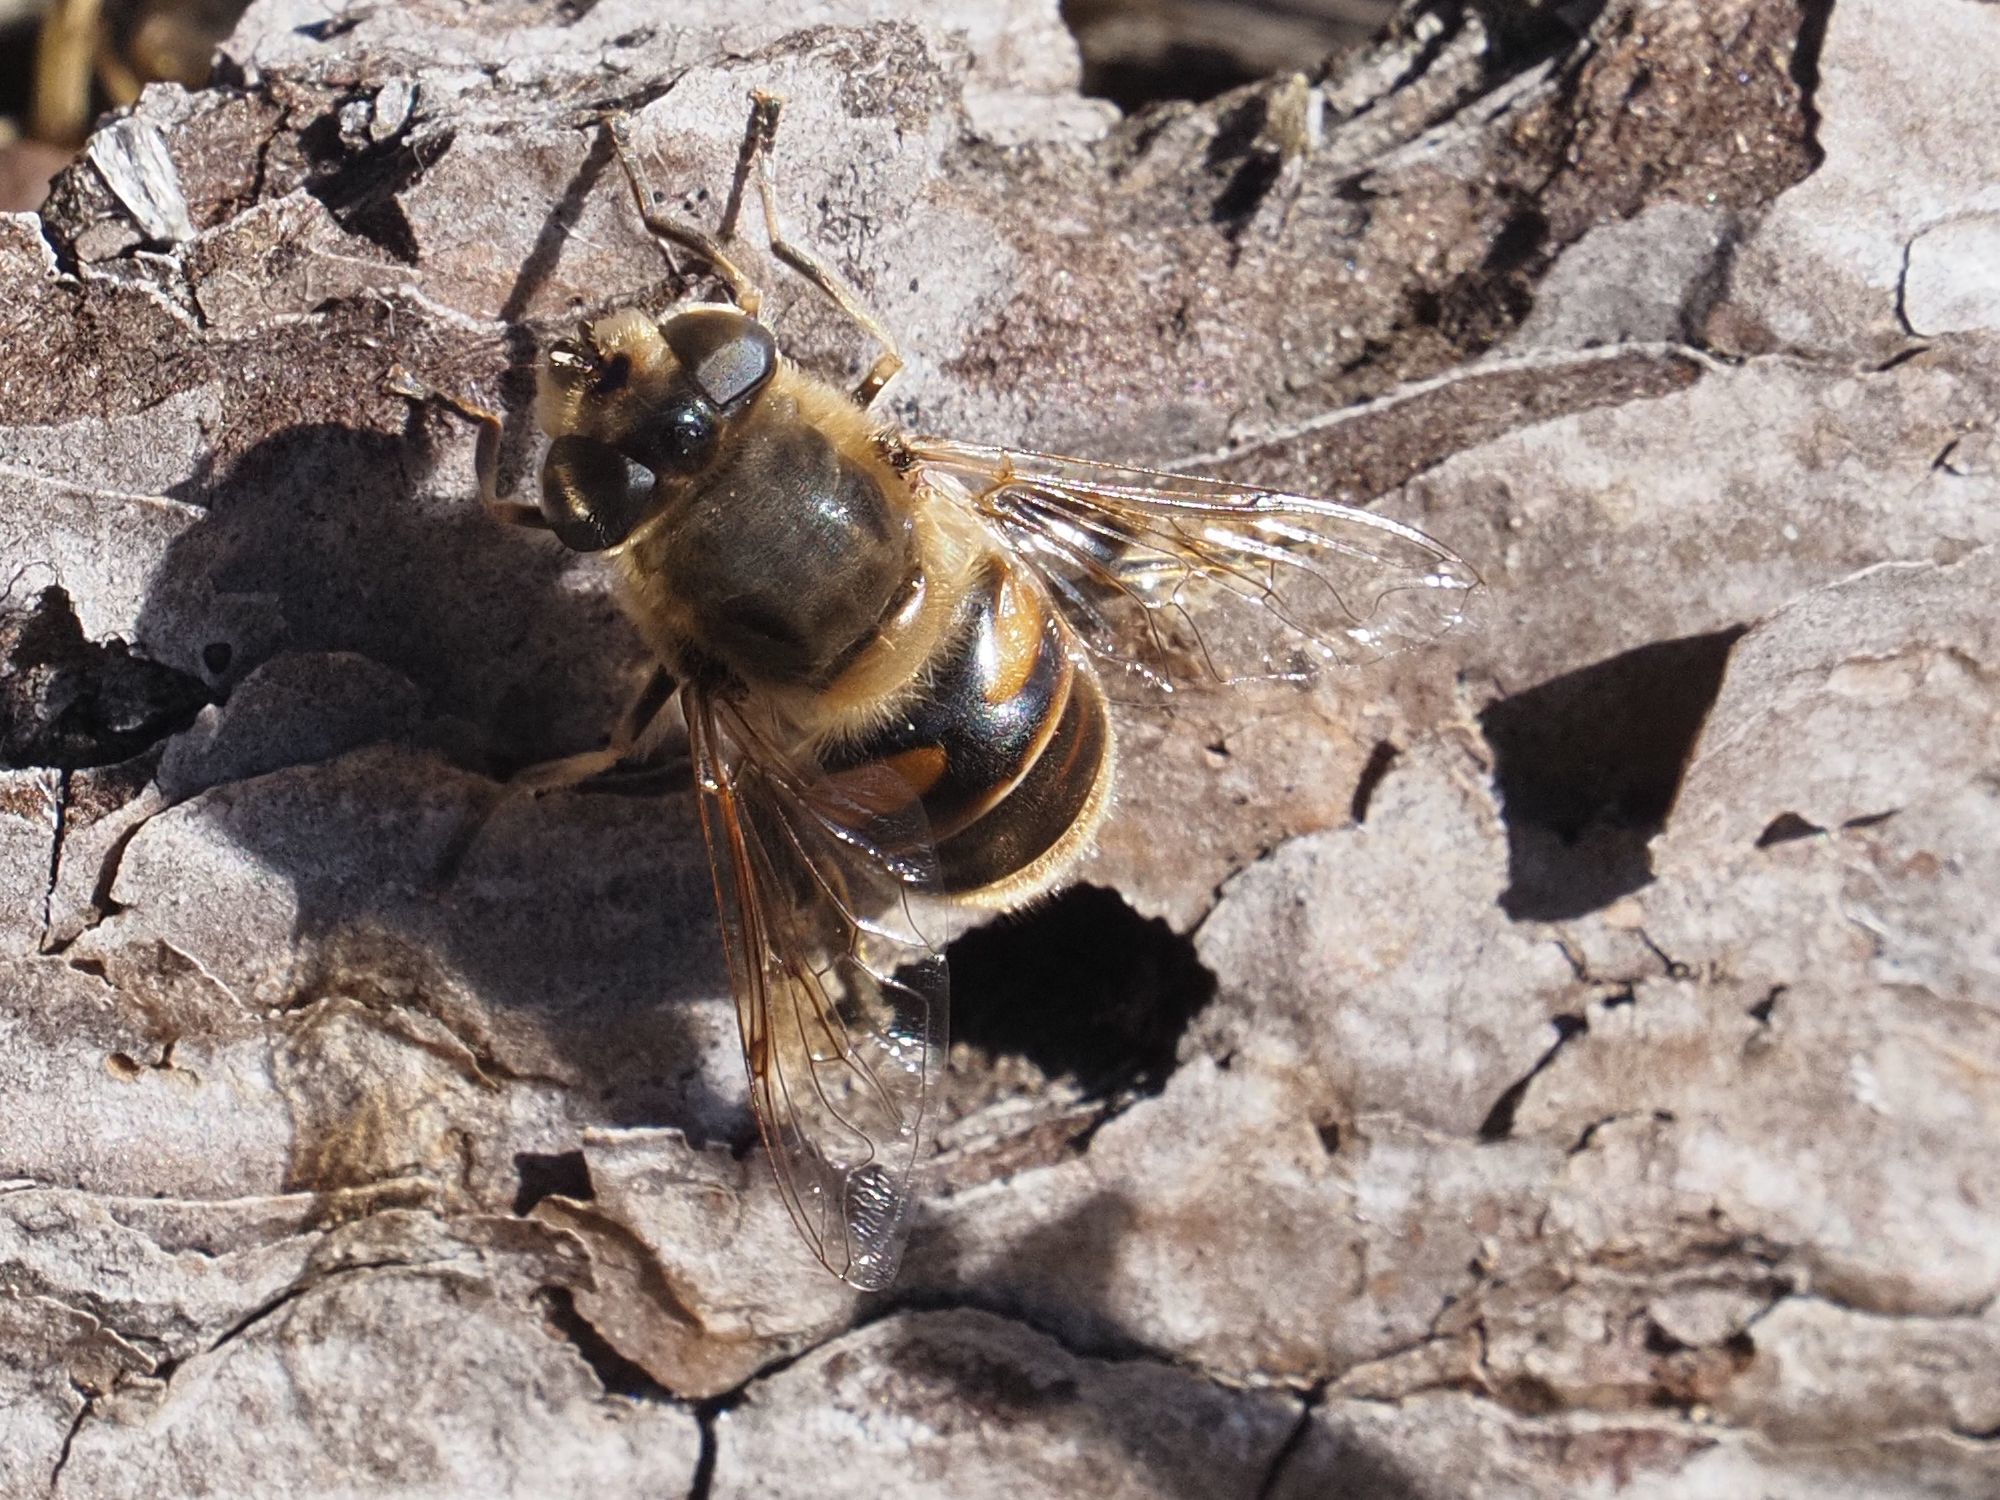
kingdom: Animalia
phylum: Arthropoda
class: Insecta
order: Diptera
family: Syrphidae
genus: Eristalis
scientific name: Eristalis tenax
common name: Drone fly
